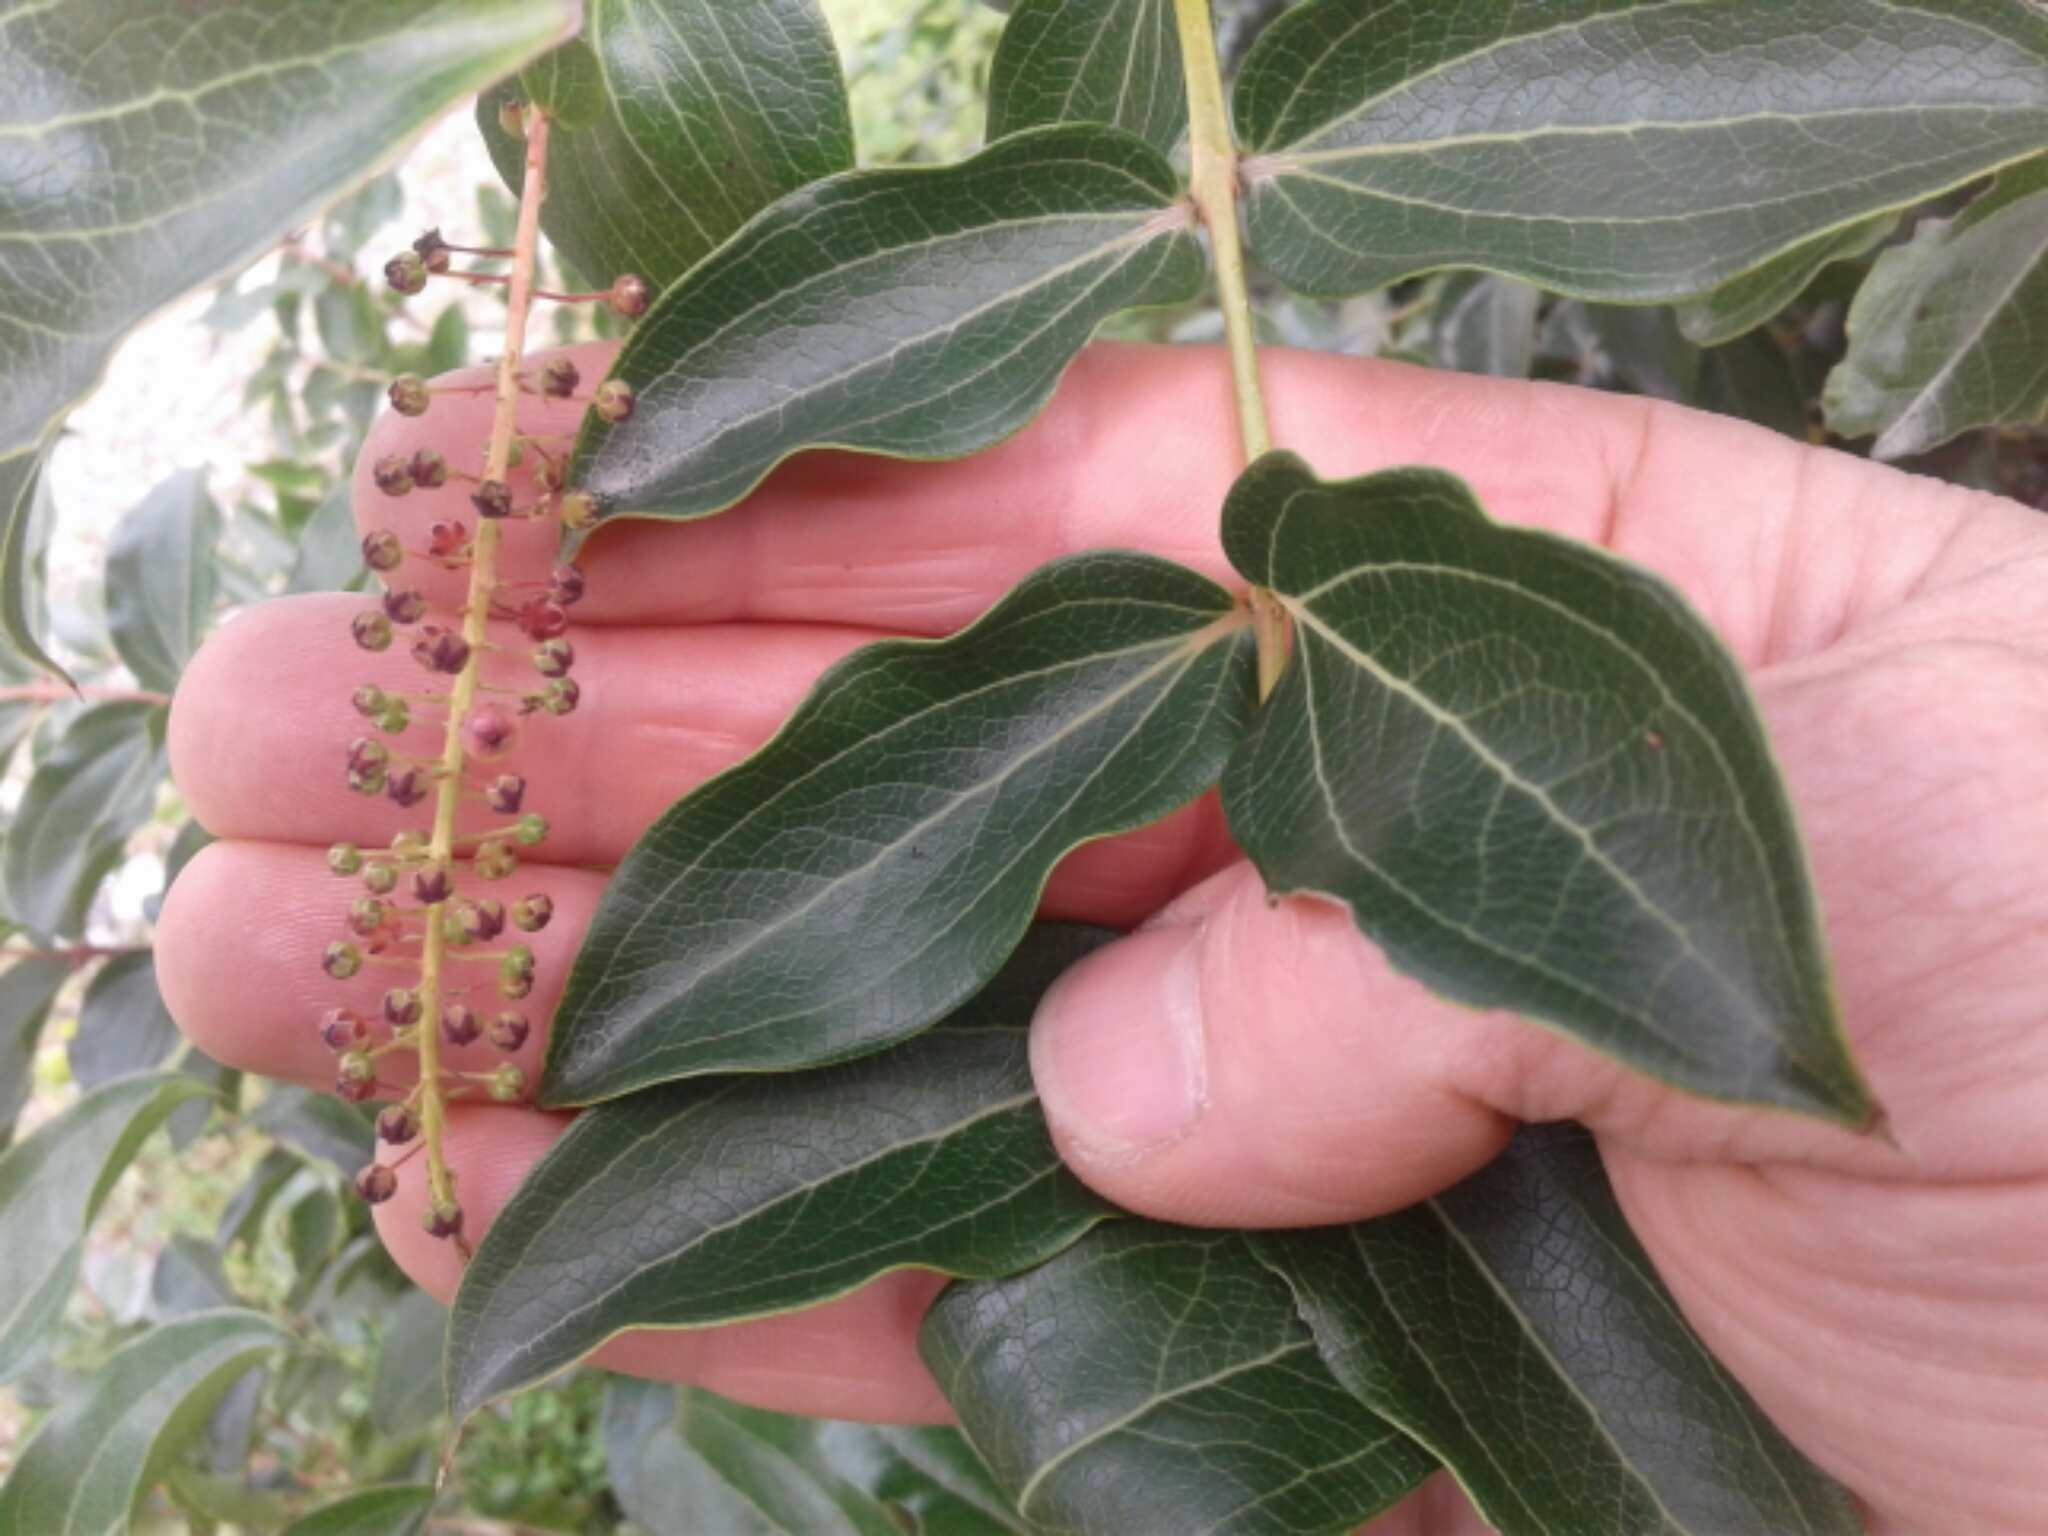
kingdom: Plantae
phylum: Tracheophyta
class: Magnoliopsida
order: Cucurbitales
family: Coriariaceae
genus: Coriaria
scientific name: Coriaria arborea
